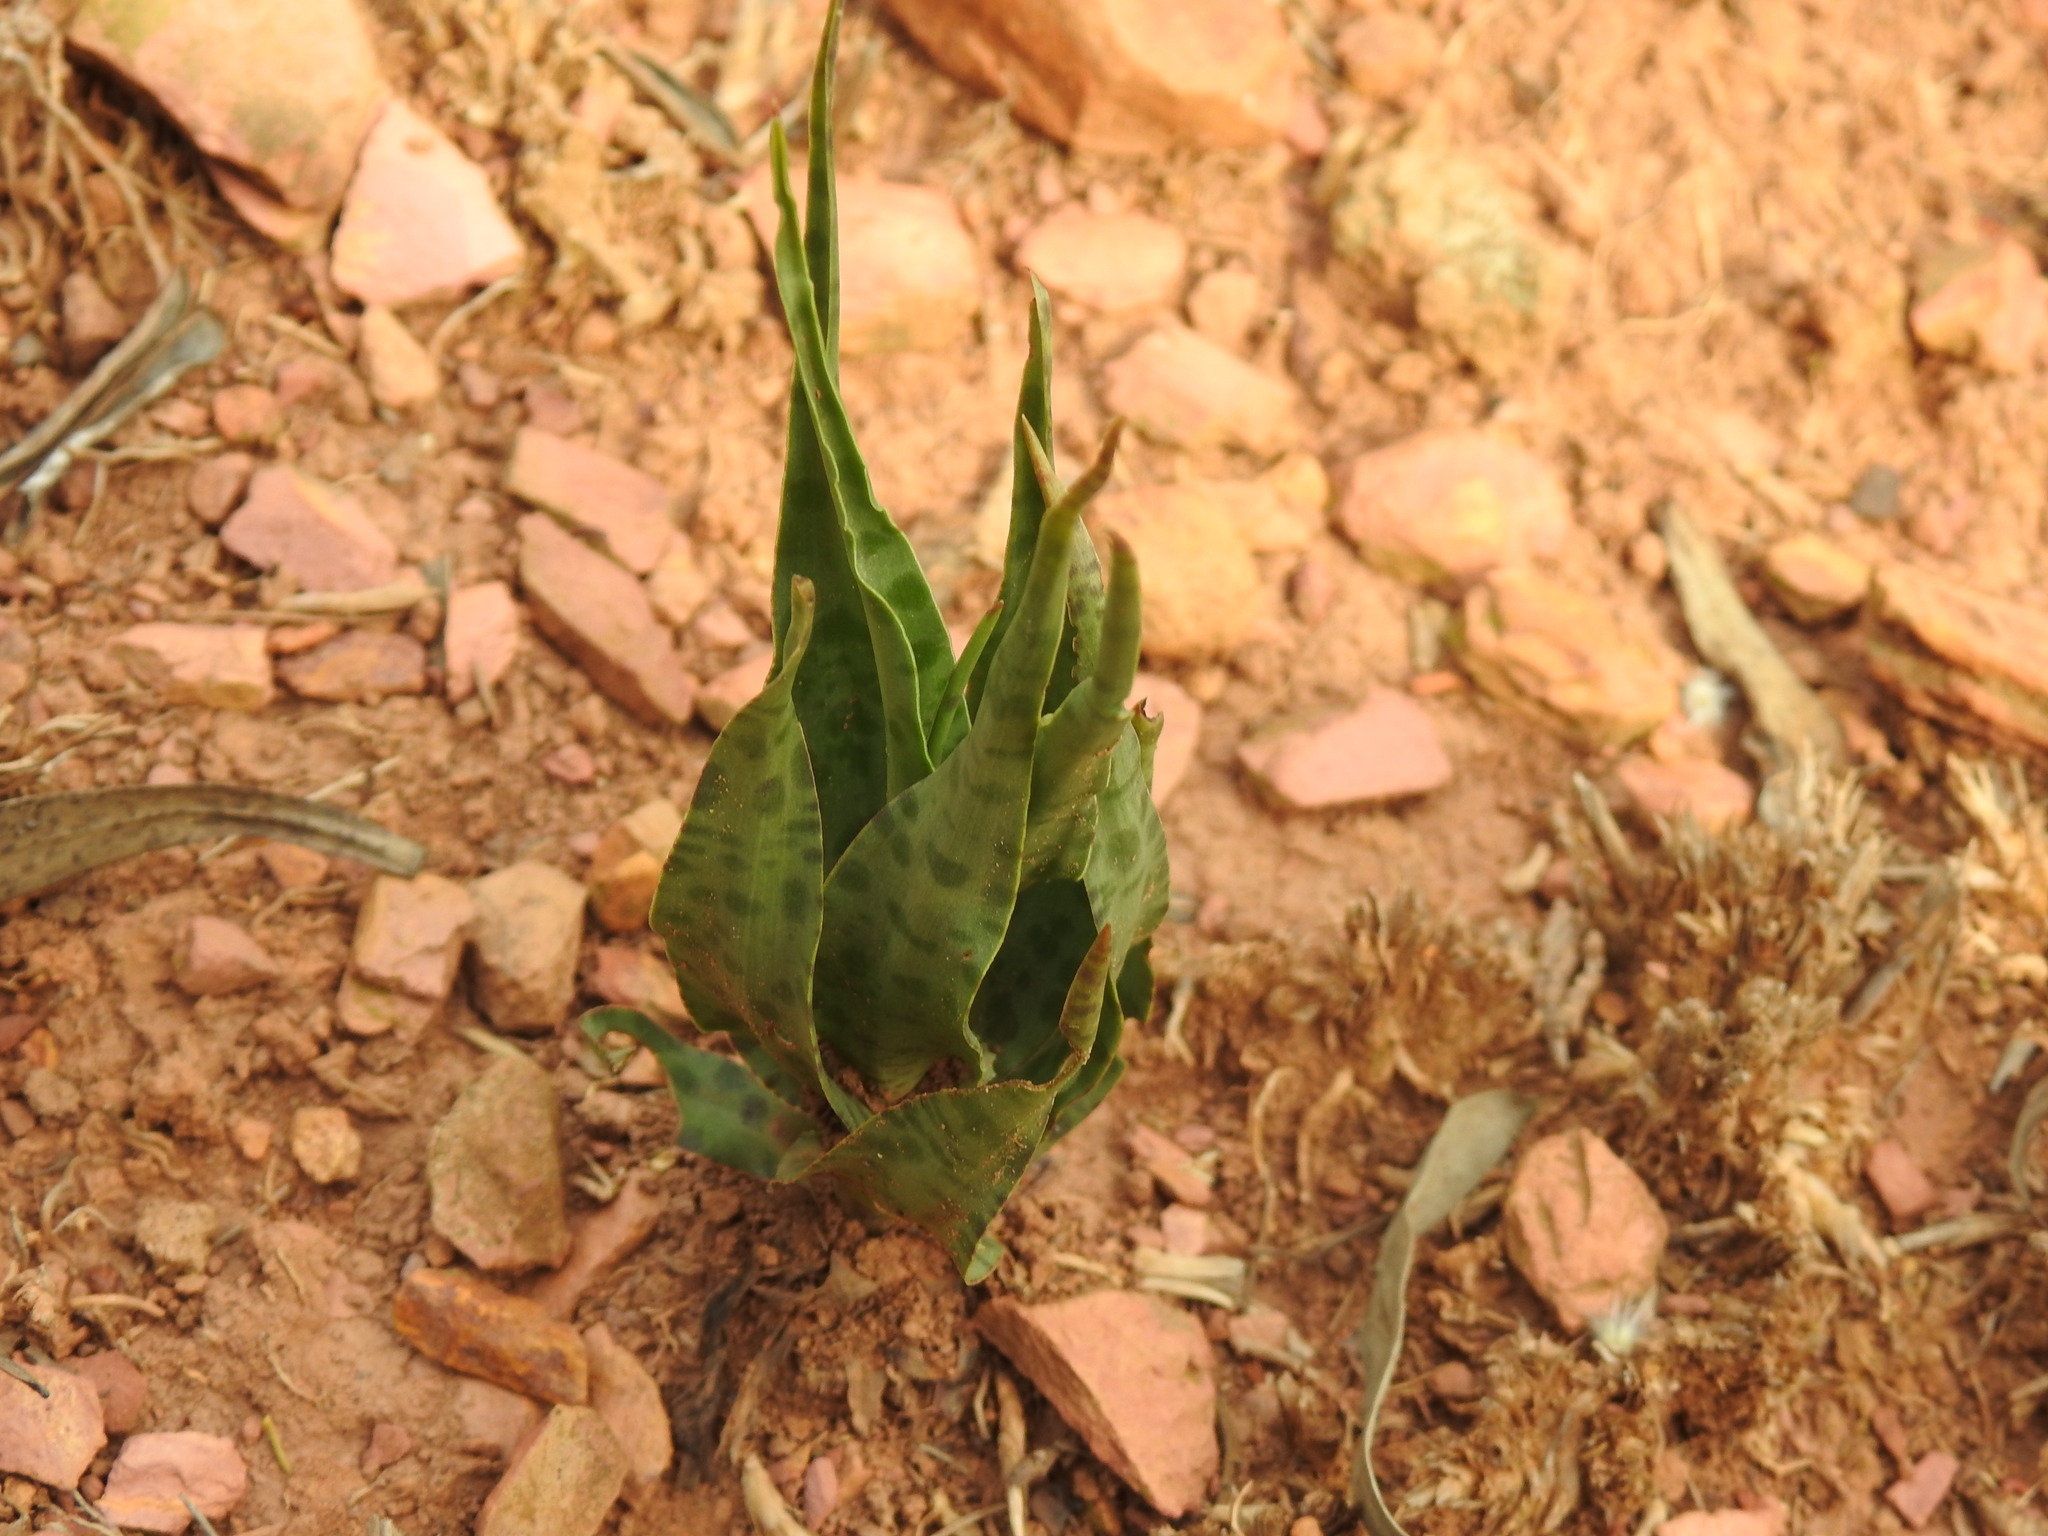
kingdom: Plantae
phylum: Tracheophyta
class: Liliopsida
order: Asparagales
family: Asparagaceae
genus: Ledebouria
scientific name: Ledebouria inquinata
